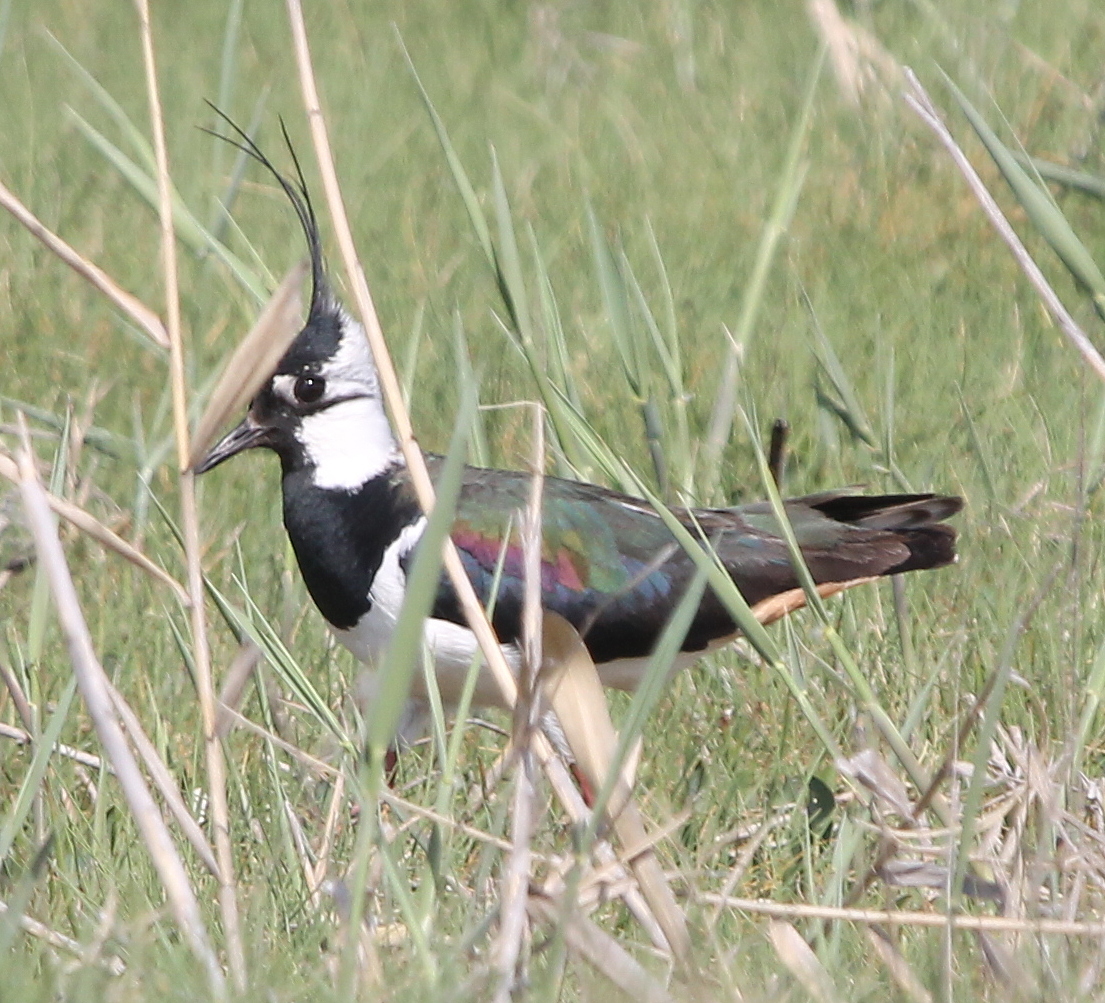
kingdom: Animalia
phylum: Chordata
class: Aves
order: Charadriiformes
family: Charadriidae
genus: Vanellus
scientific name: Vanellus vanellus
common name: Northern lapwing
